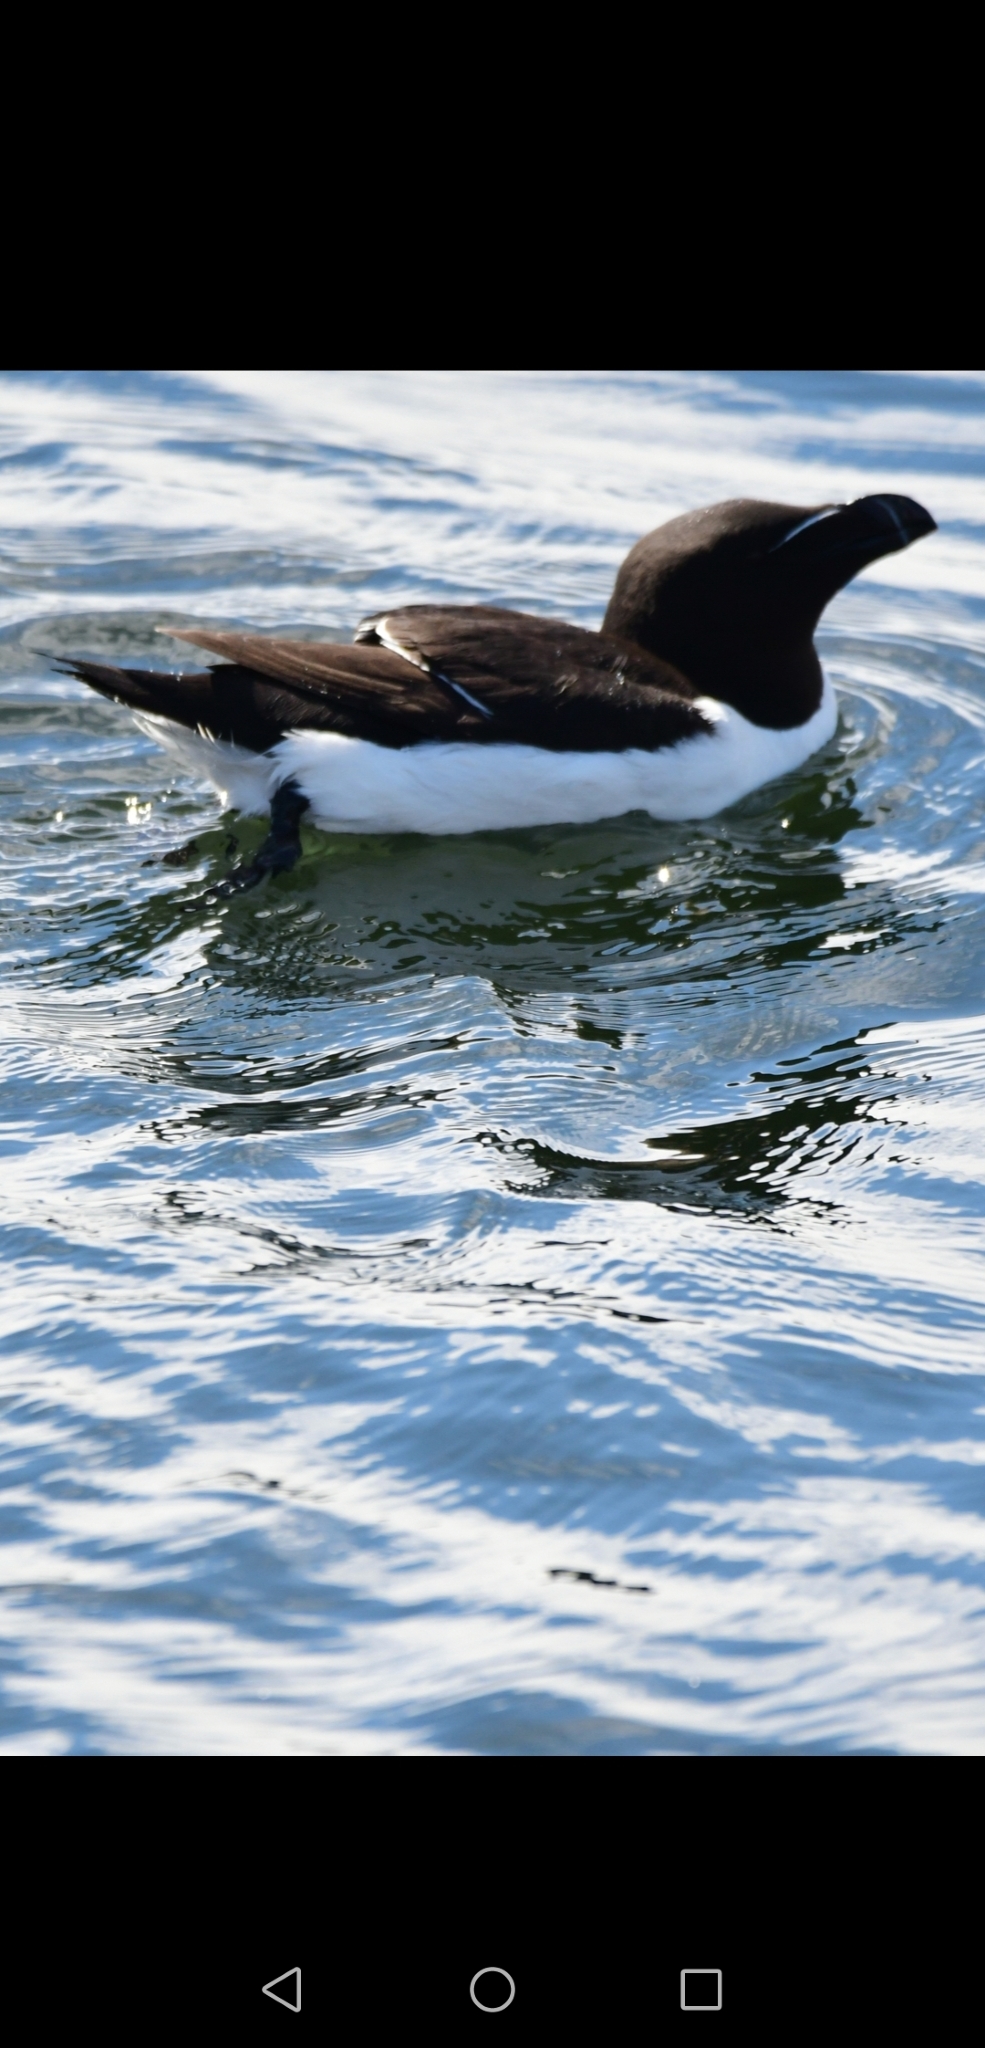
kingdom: Animalia
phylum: Chordata
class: Aves
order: Charadriiformes
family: Alcidae
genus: Alca
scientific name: Alca torda
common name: Razorbill
